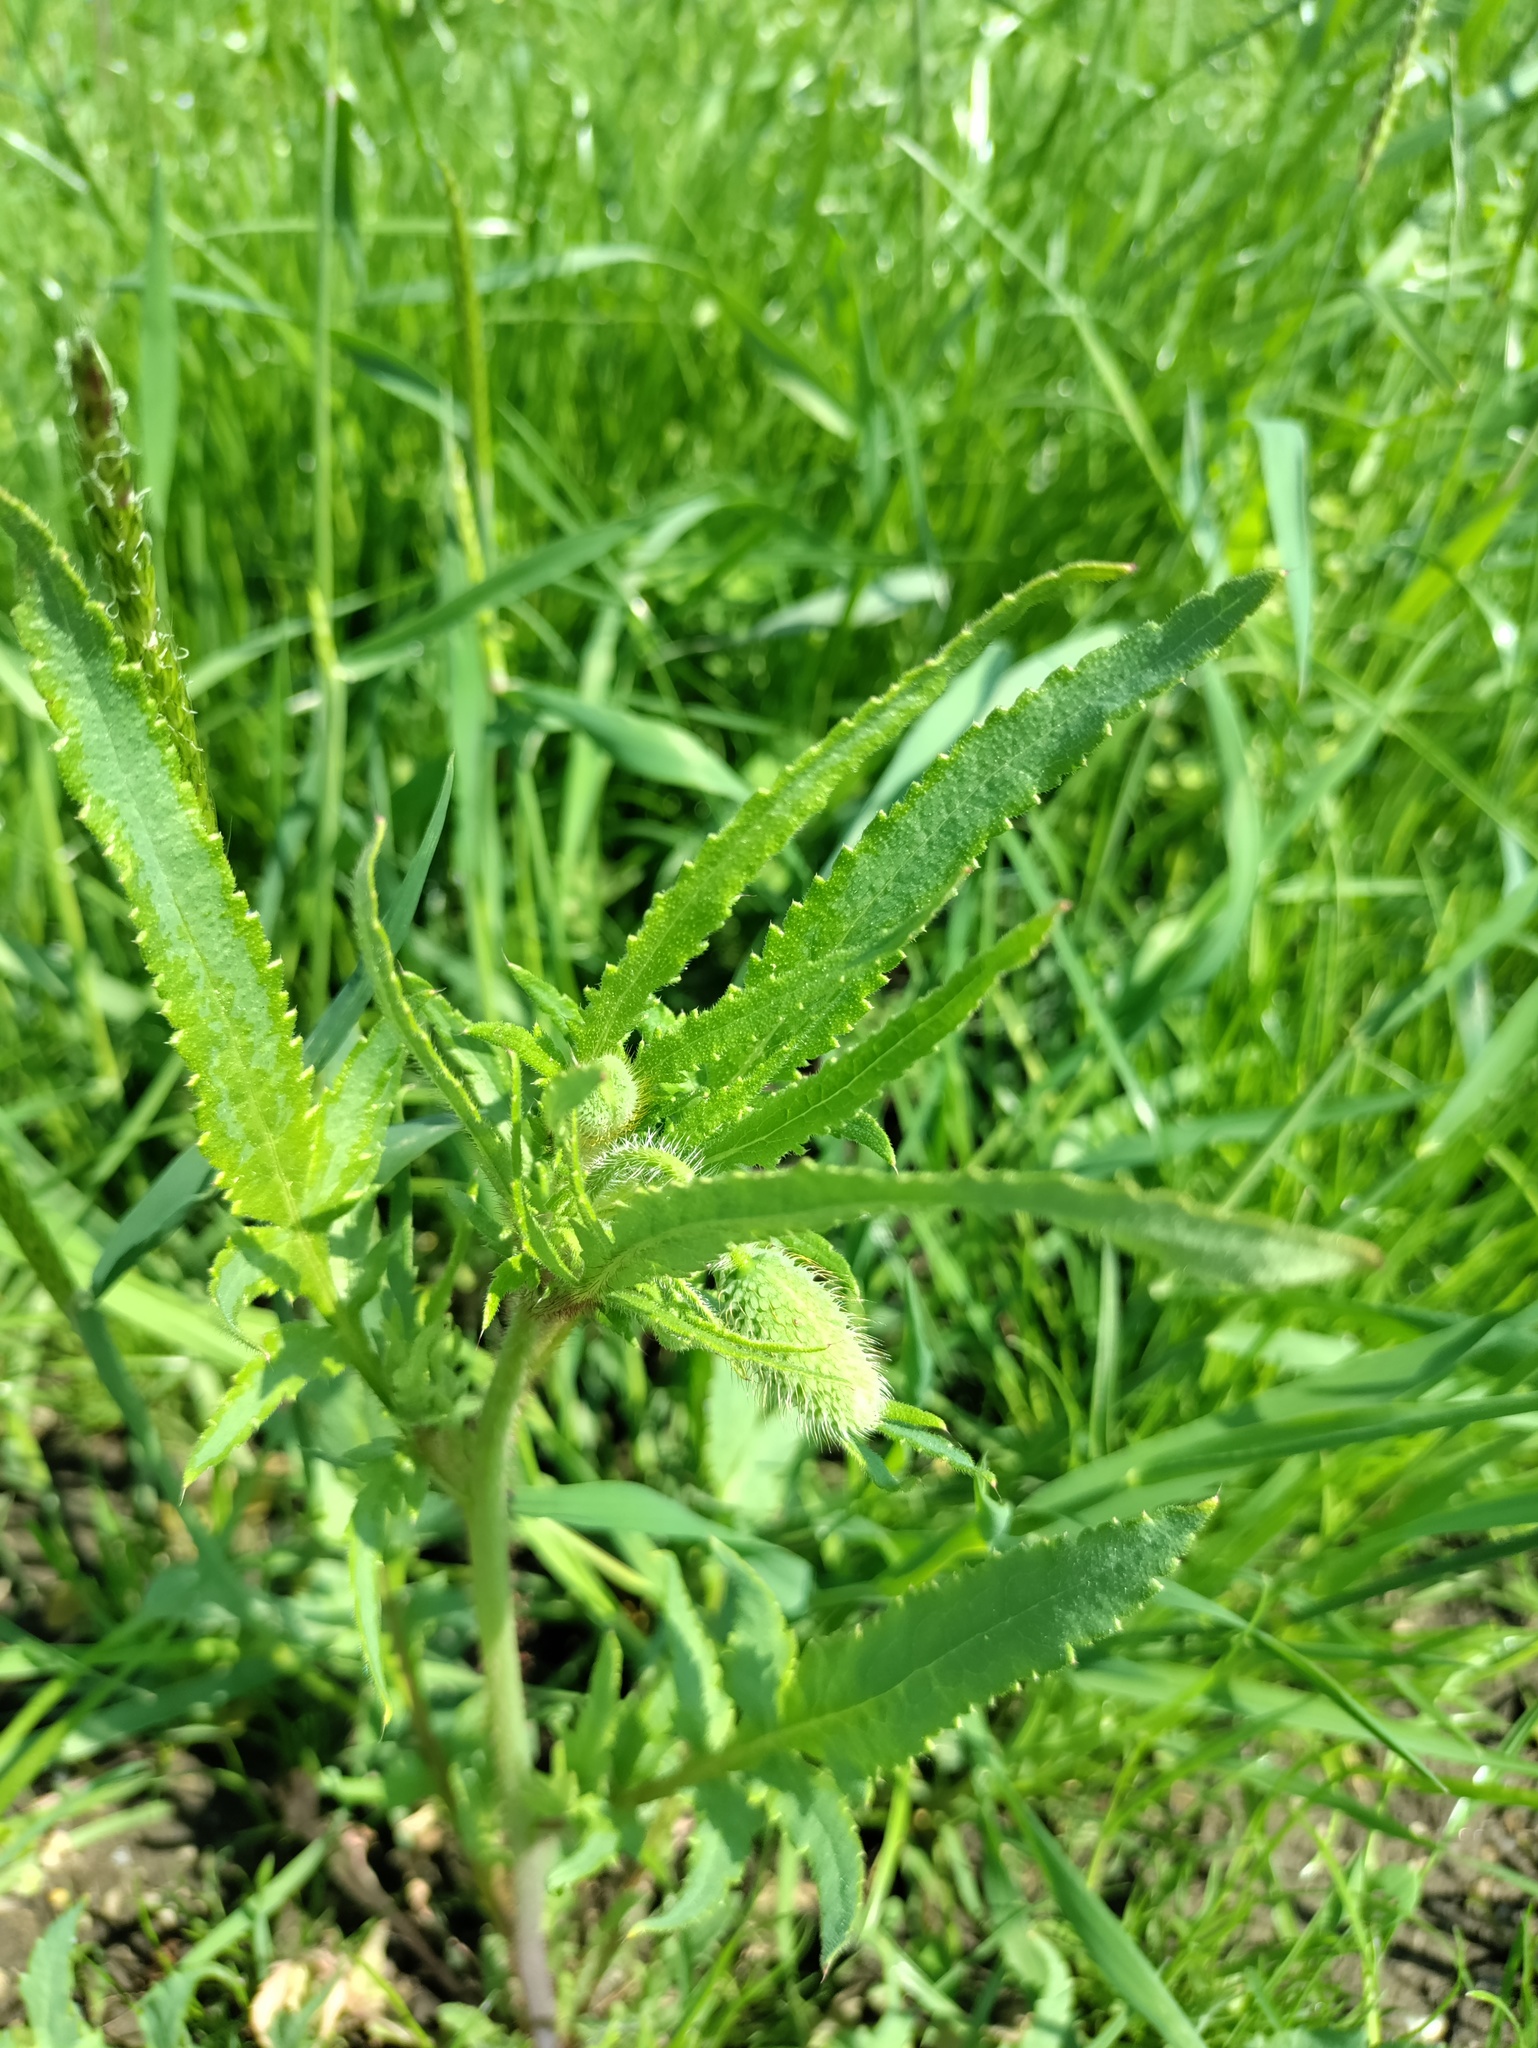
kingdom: Plantae
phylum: Tracheophyta
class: Magnoliopsida
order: Ranunculales
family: Papaveraceae
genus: Papaver
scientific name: Papaver rhoeas
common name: Corn poppy
